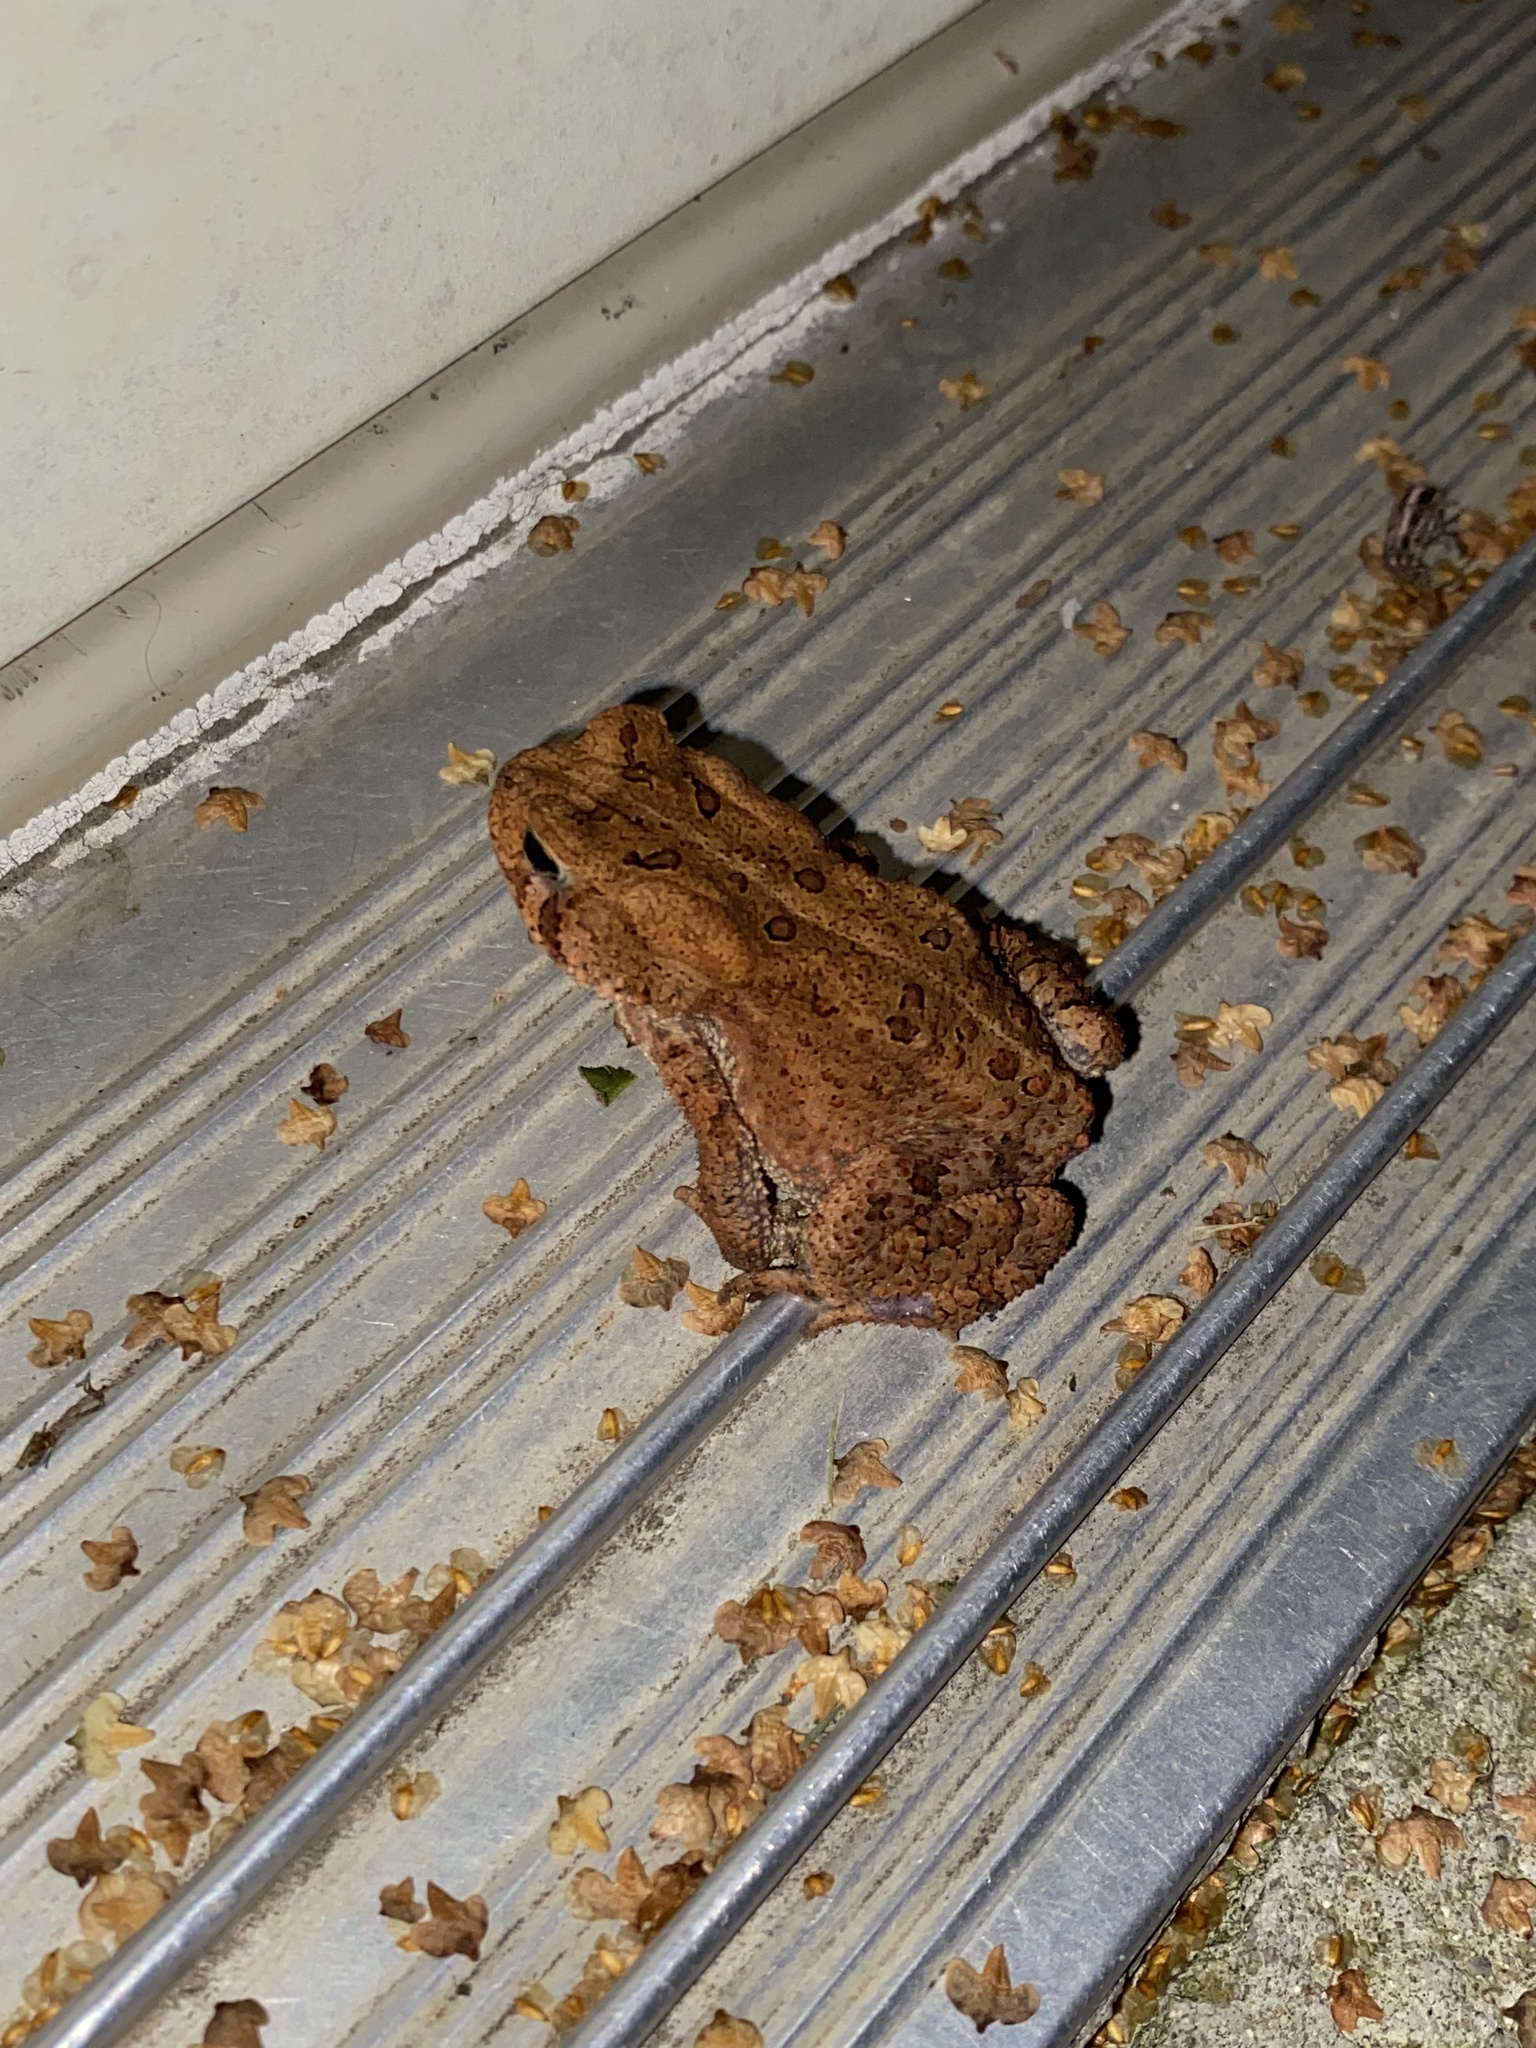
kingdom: Animalia
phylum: Chordata
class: Amphibia
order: Anura
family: Bufonidae
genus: Anaxyrus
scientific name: Anaxyrus americanus
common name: American toad
